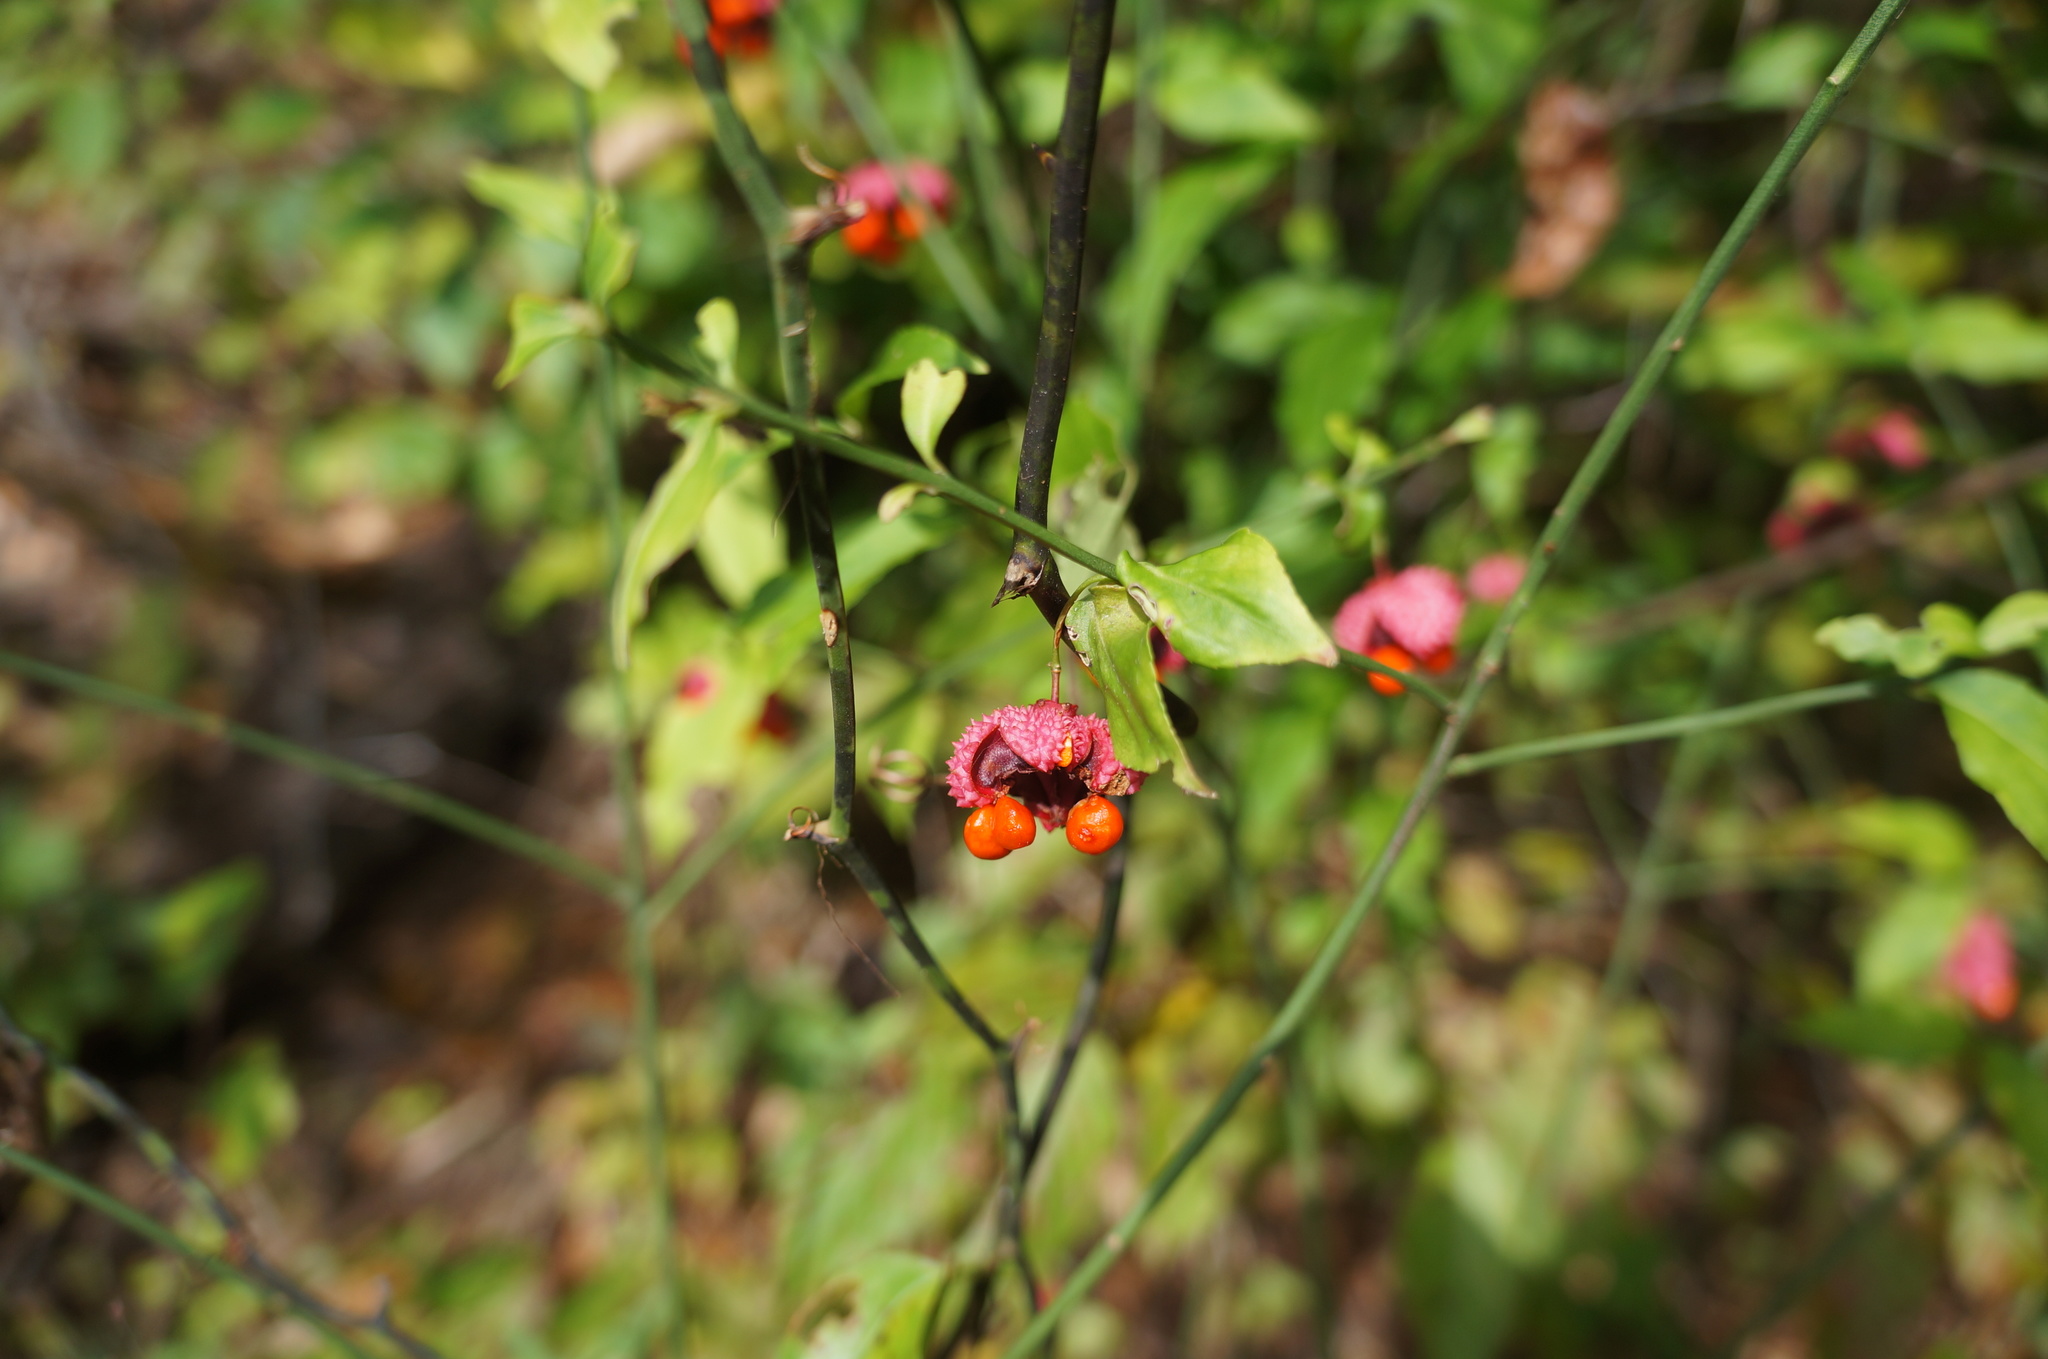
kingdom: Plantae
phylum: Tracheophyta
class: Magnoliopsida
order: Celastrales
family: Celastraceae
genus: Euonymus
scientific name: Euonymus americanus
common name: Bursting-heart
